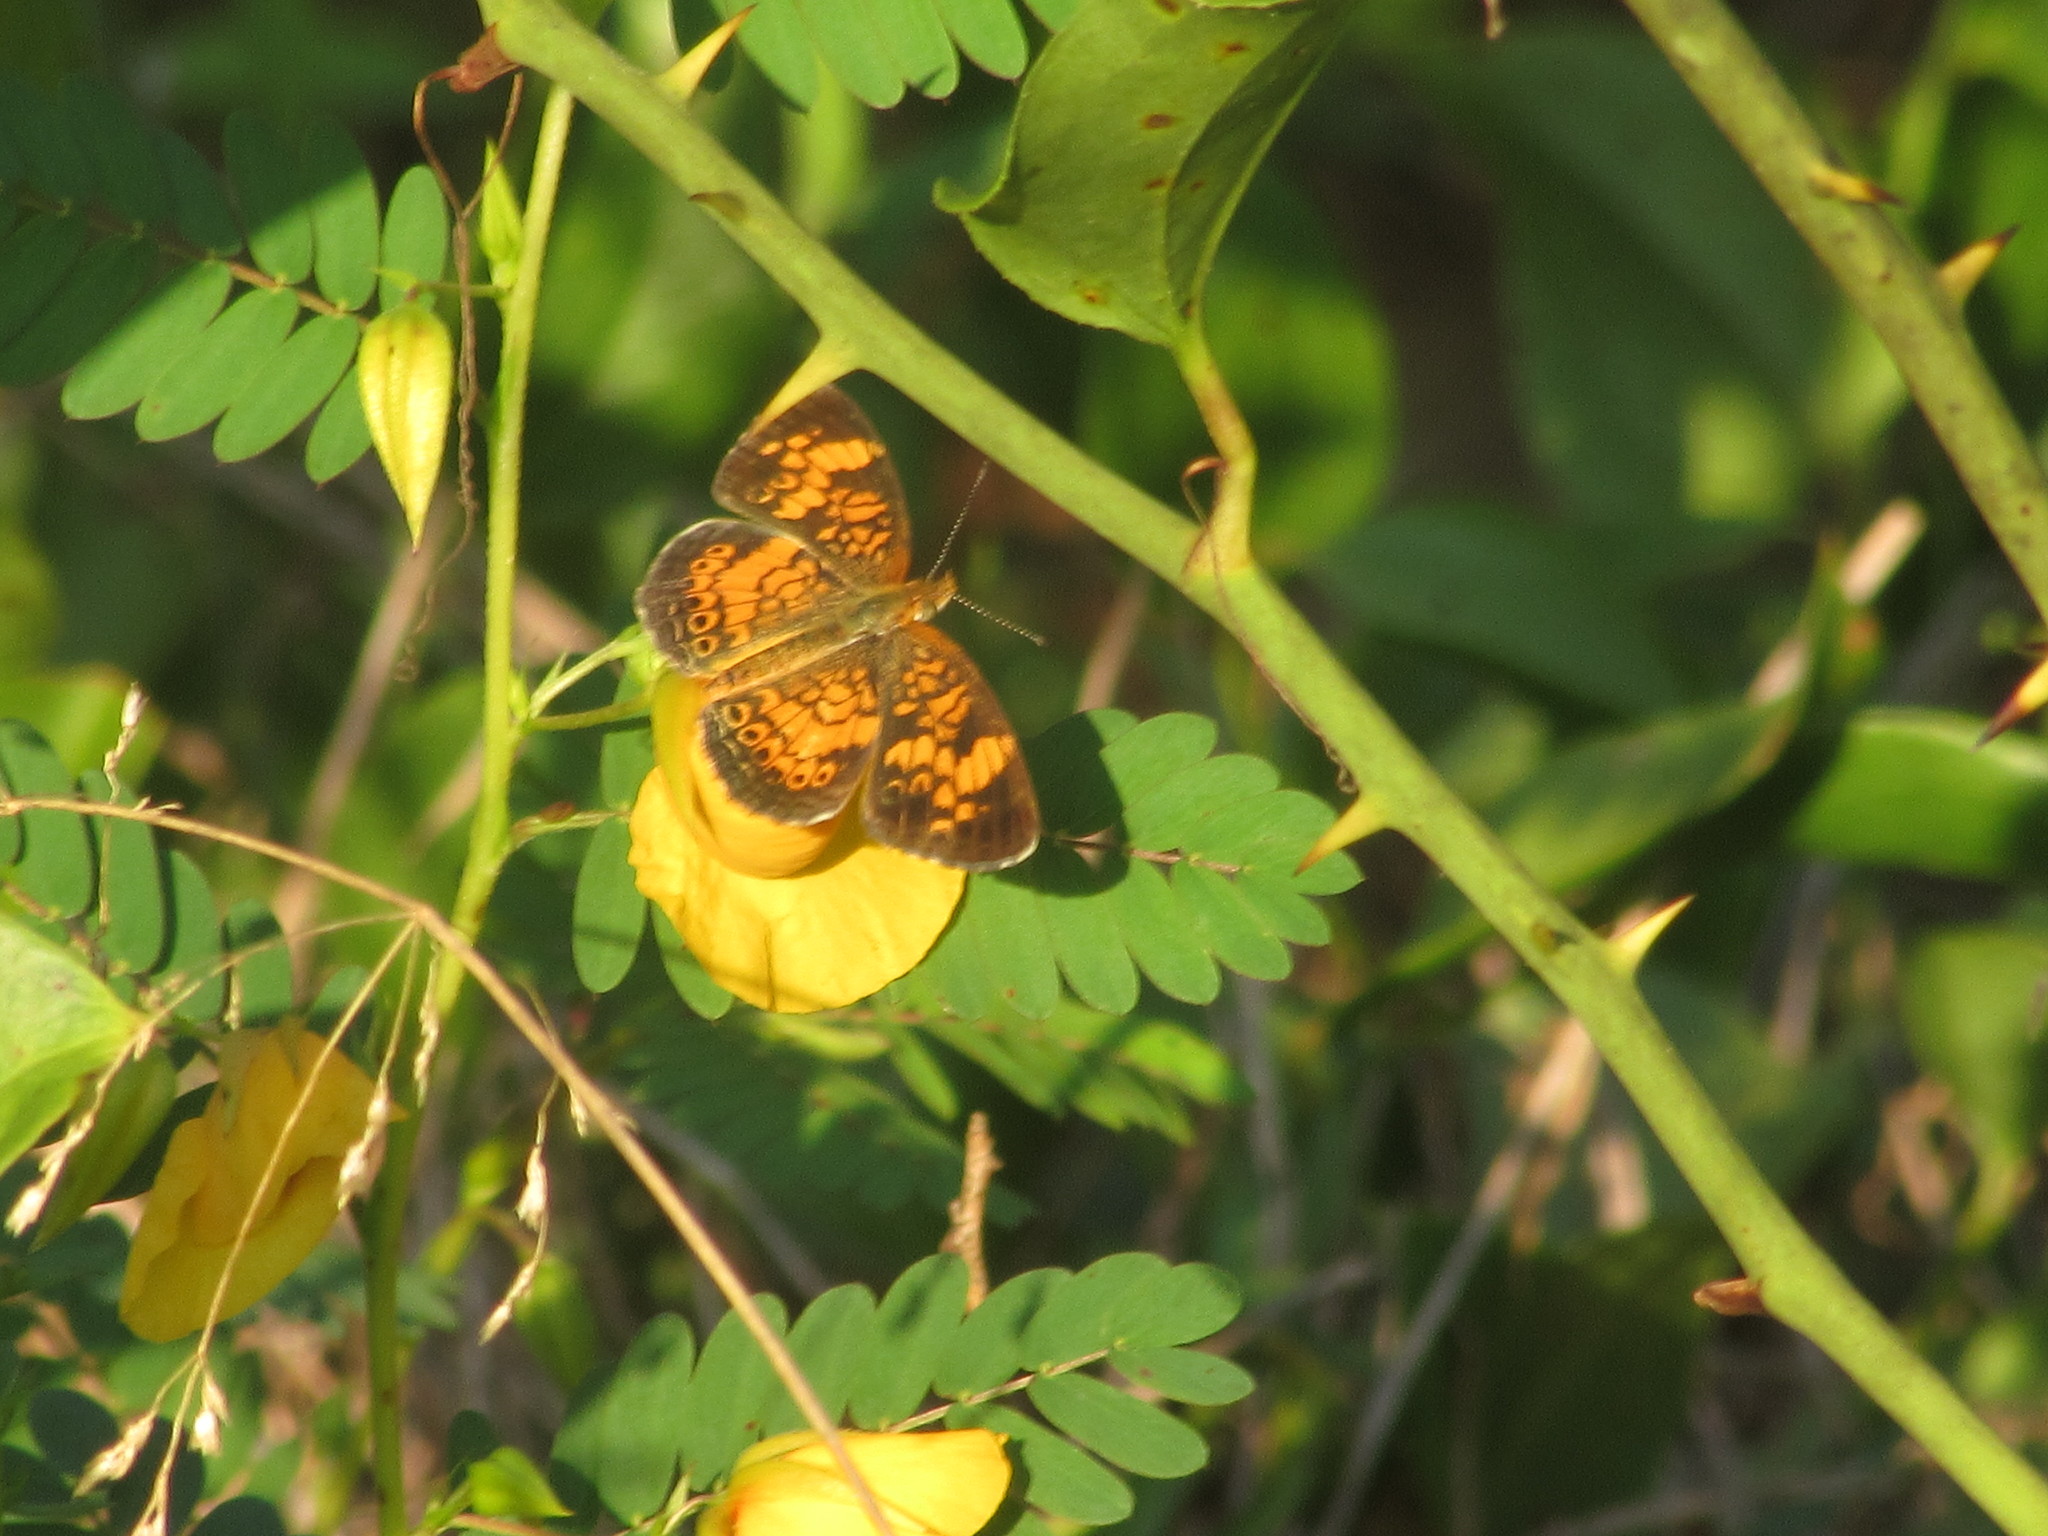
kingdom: Animalia
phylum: Arthropoda
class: Insecta
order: Lepidoptera
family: Nymphalidae
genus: Phyciodes
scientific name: Phyciodes tharos
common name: Pearl crescent
